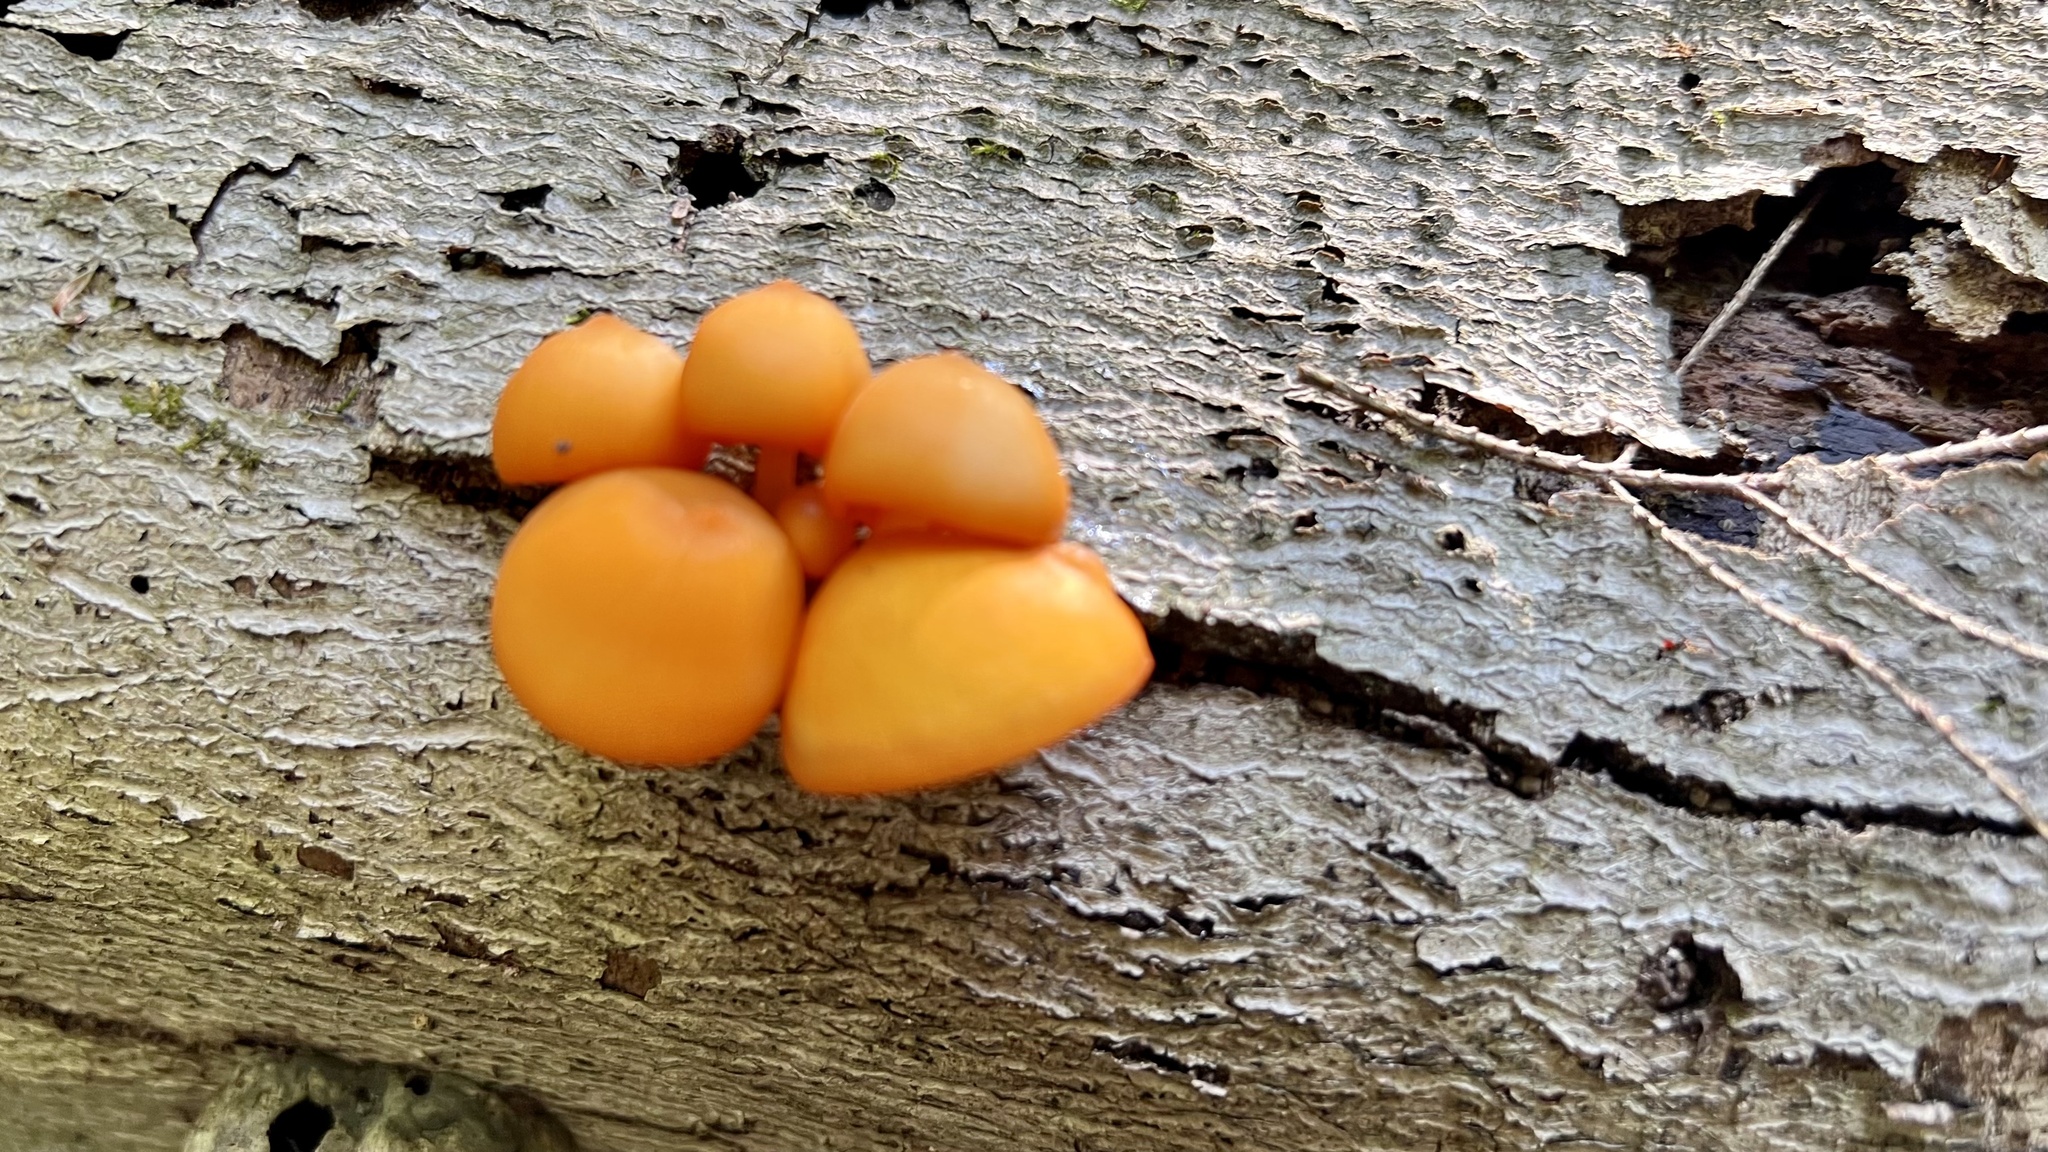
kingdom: Fungi
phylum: Basidiomycota
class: Agaricomycetes
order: Agaricales
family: Mycenaceae
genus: Mycena
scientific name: Mycena leaiana
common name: Orange mycena
